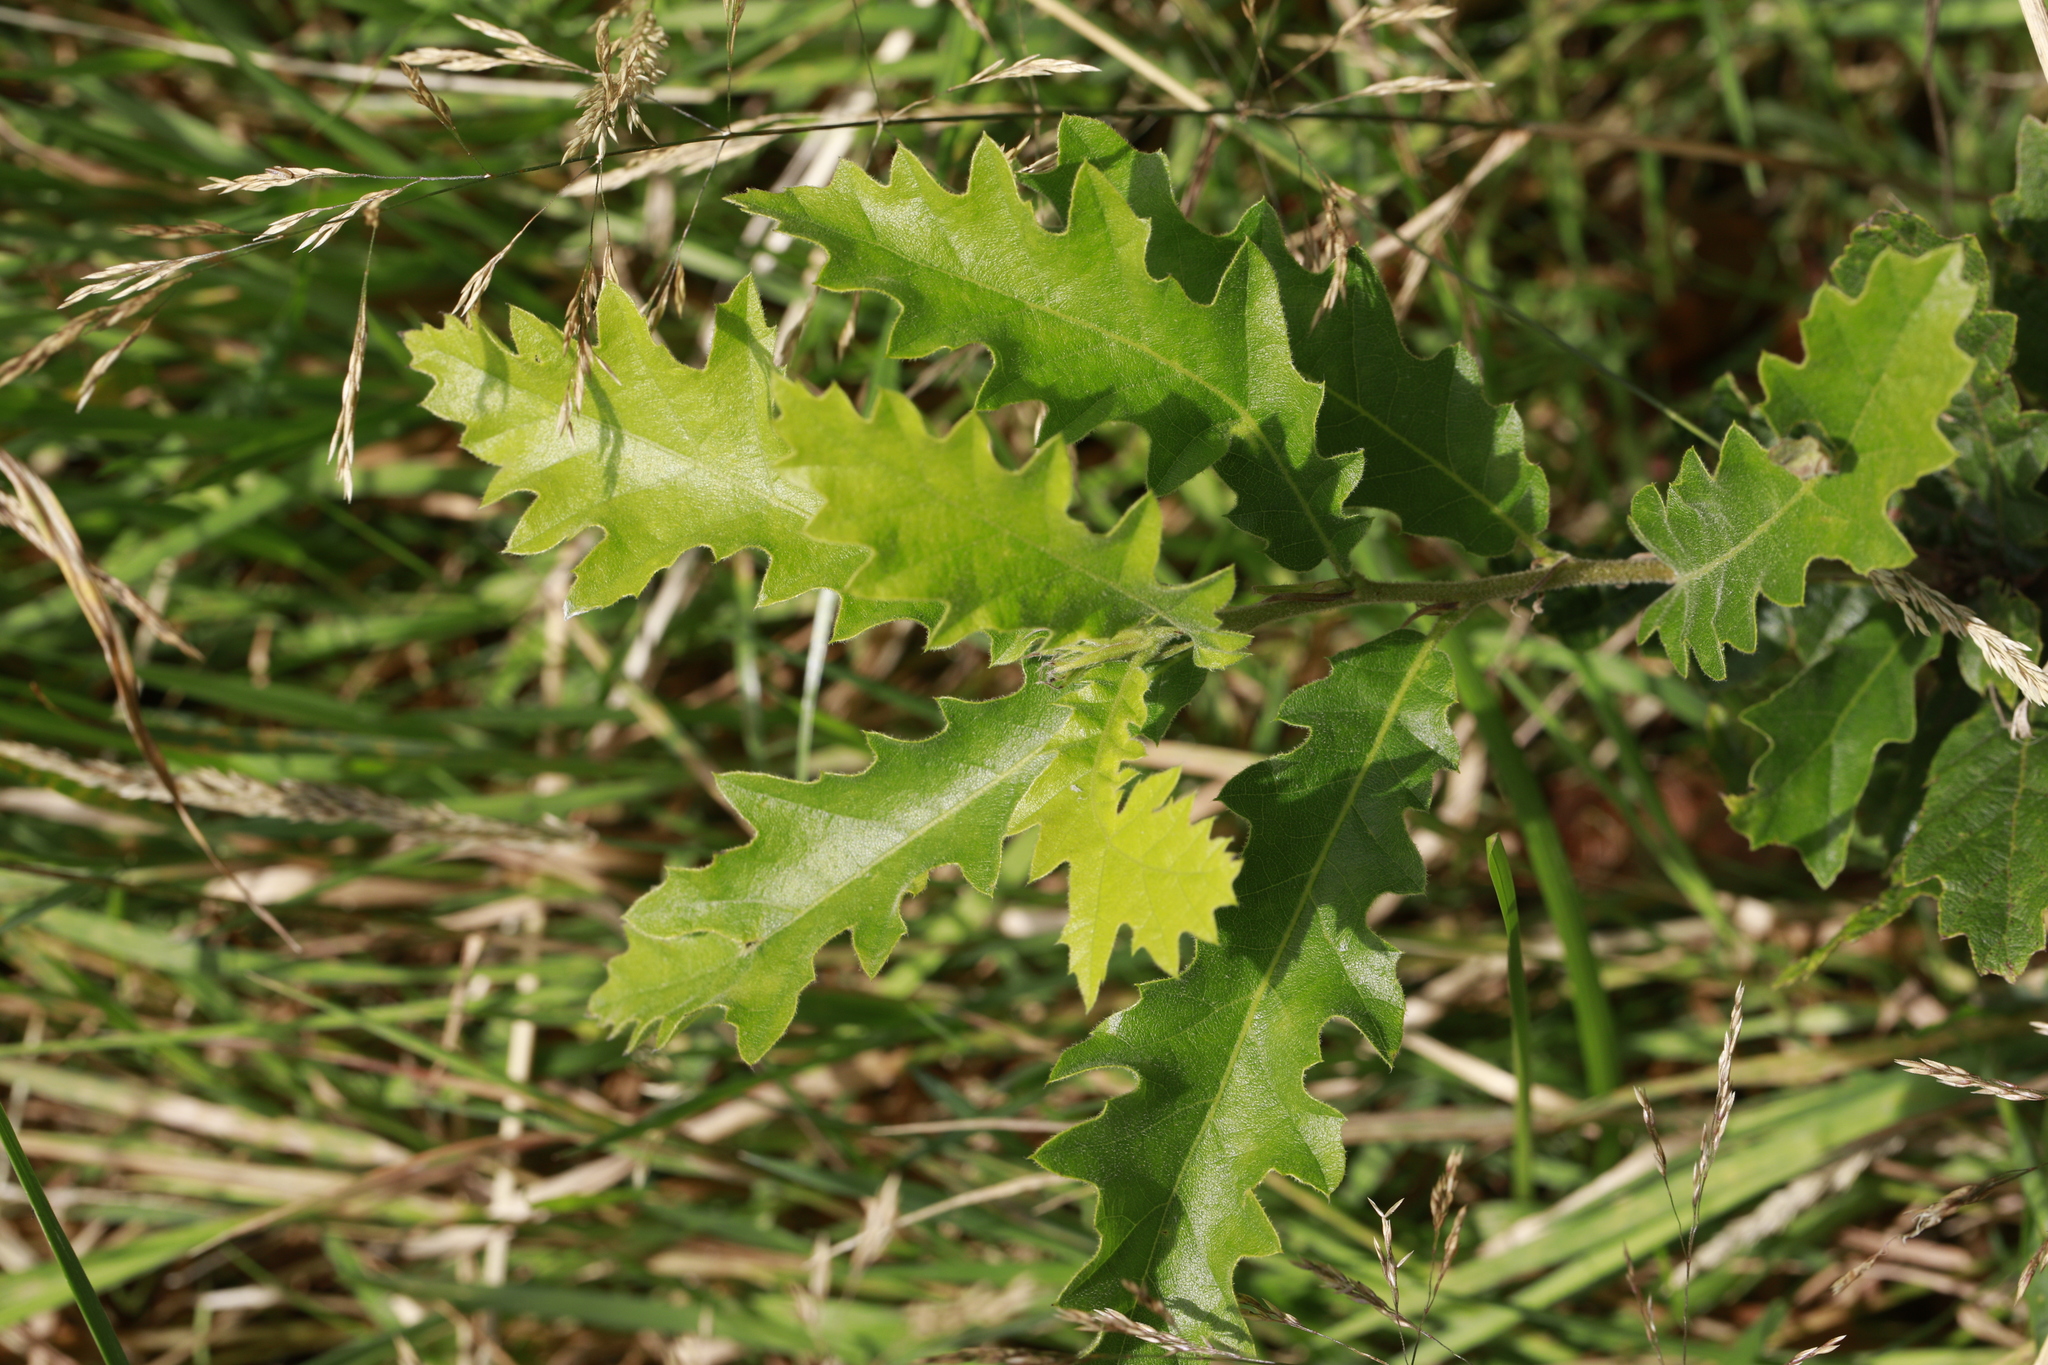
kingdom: Plantae
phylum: Tracheophyta
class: Magnoliopsida
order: Fagales
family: Fagaceae
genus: Quercus
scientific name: Quercus cerris
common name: Turkey oak
